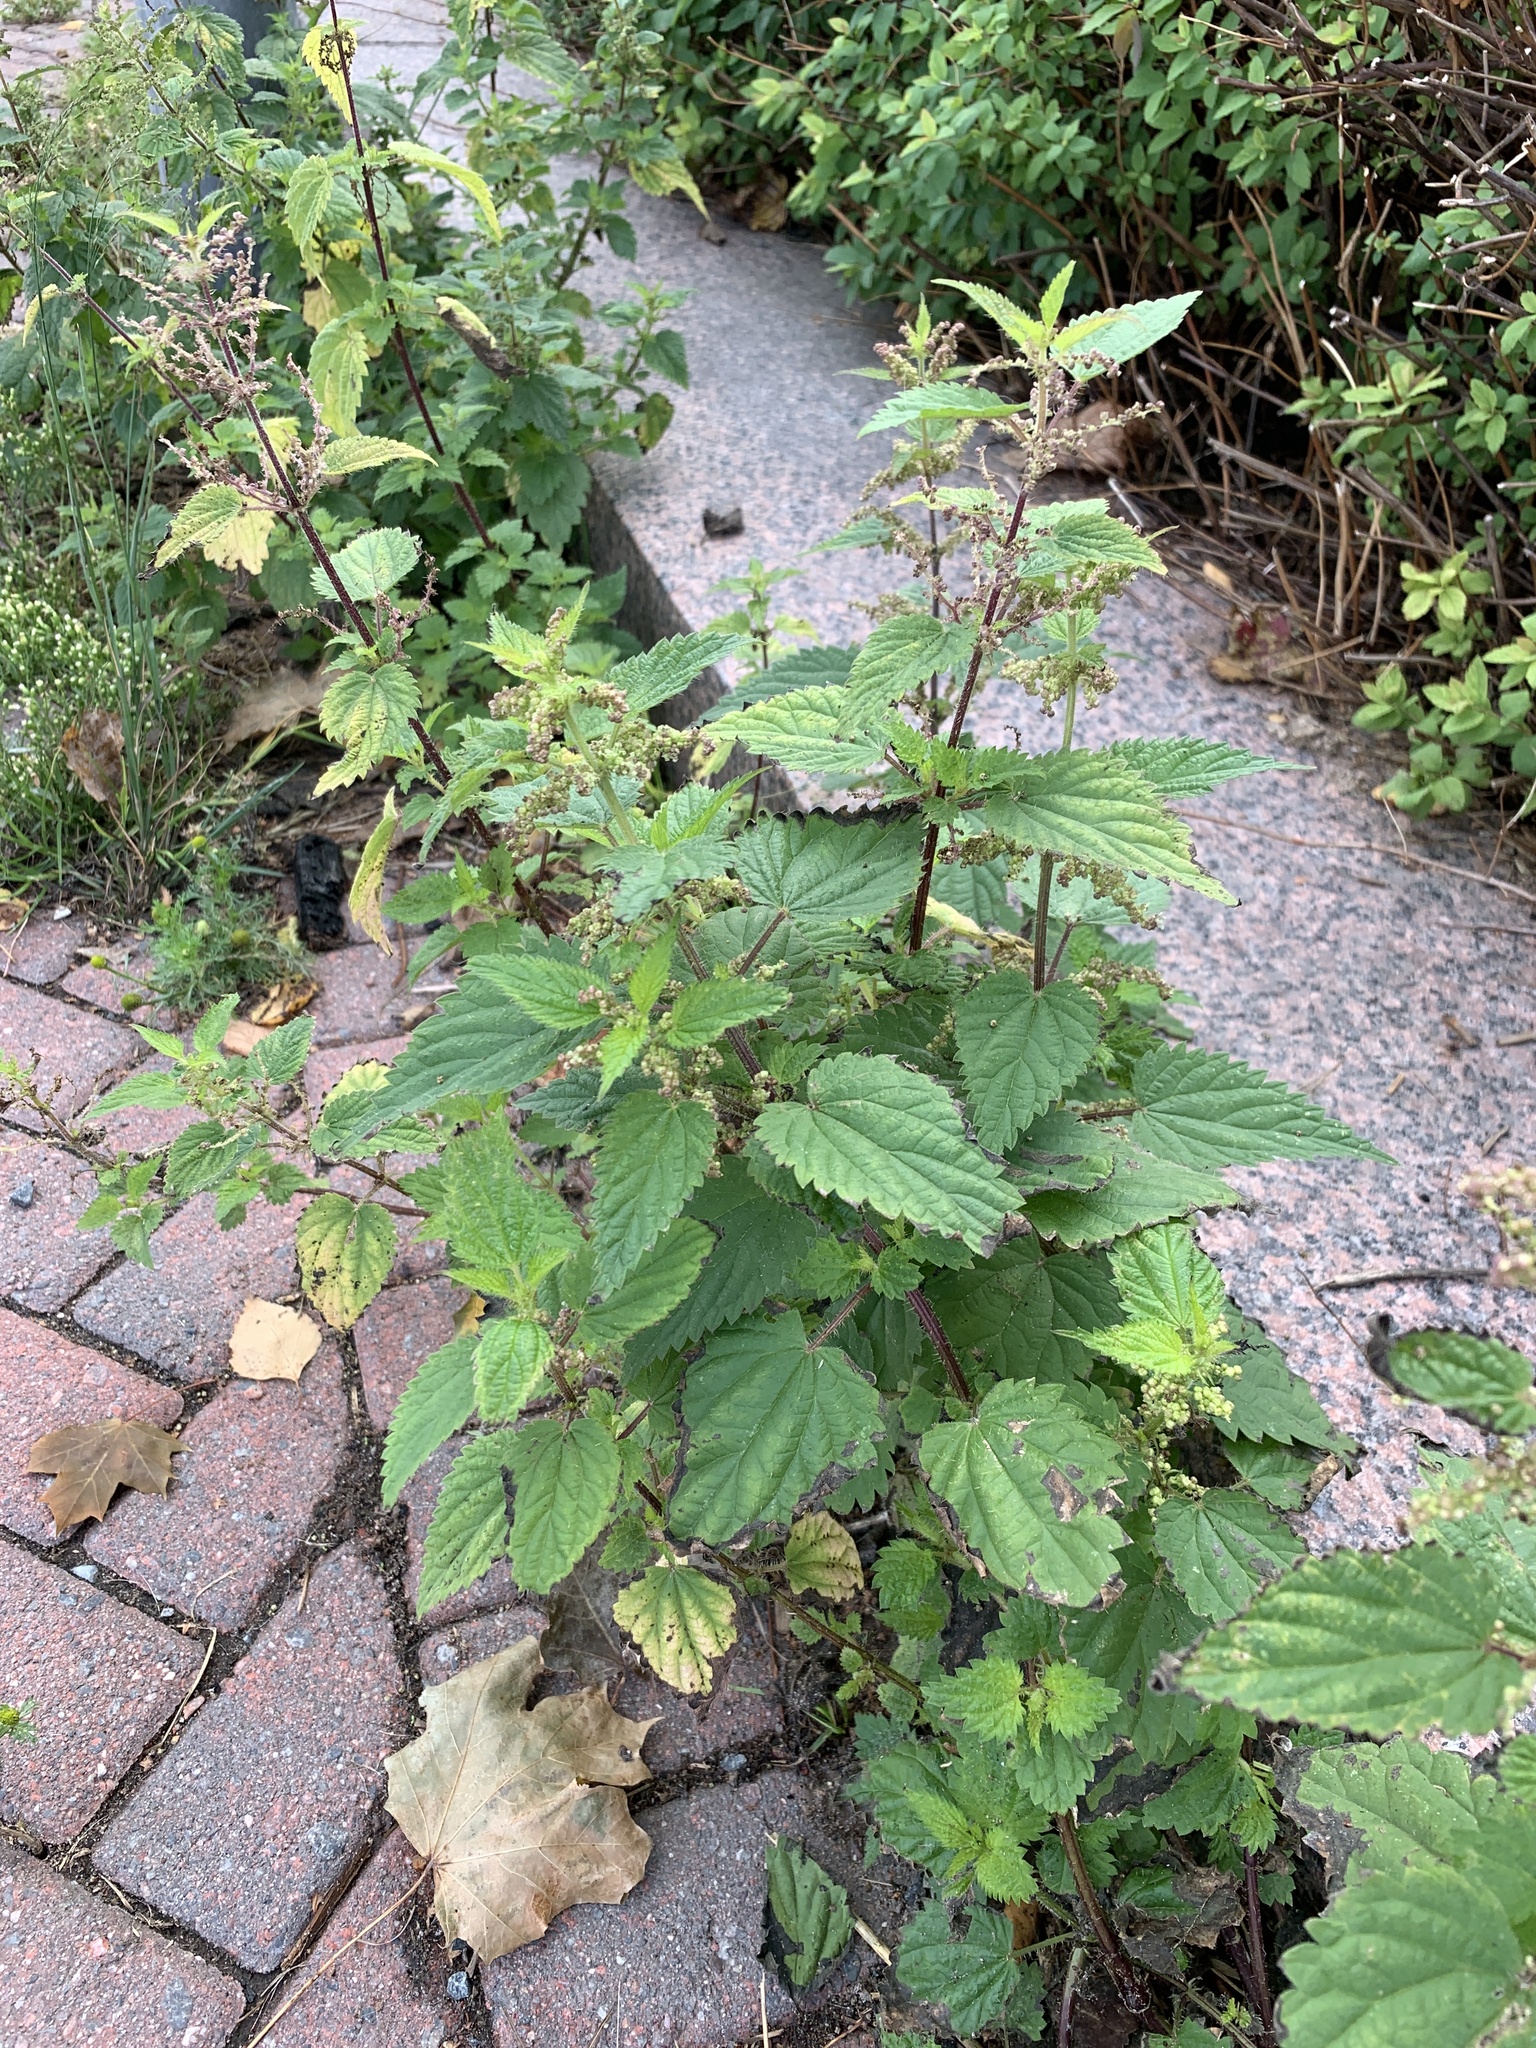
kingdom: Plantae
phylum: Tracheophyta
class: Magnoliopsida
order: Rosales
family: Urticaceae
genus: Urtica
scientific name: Urtica dioica
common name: Common nettle
